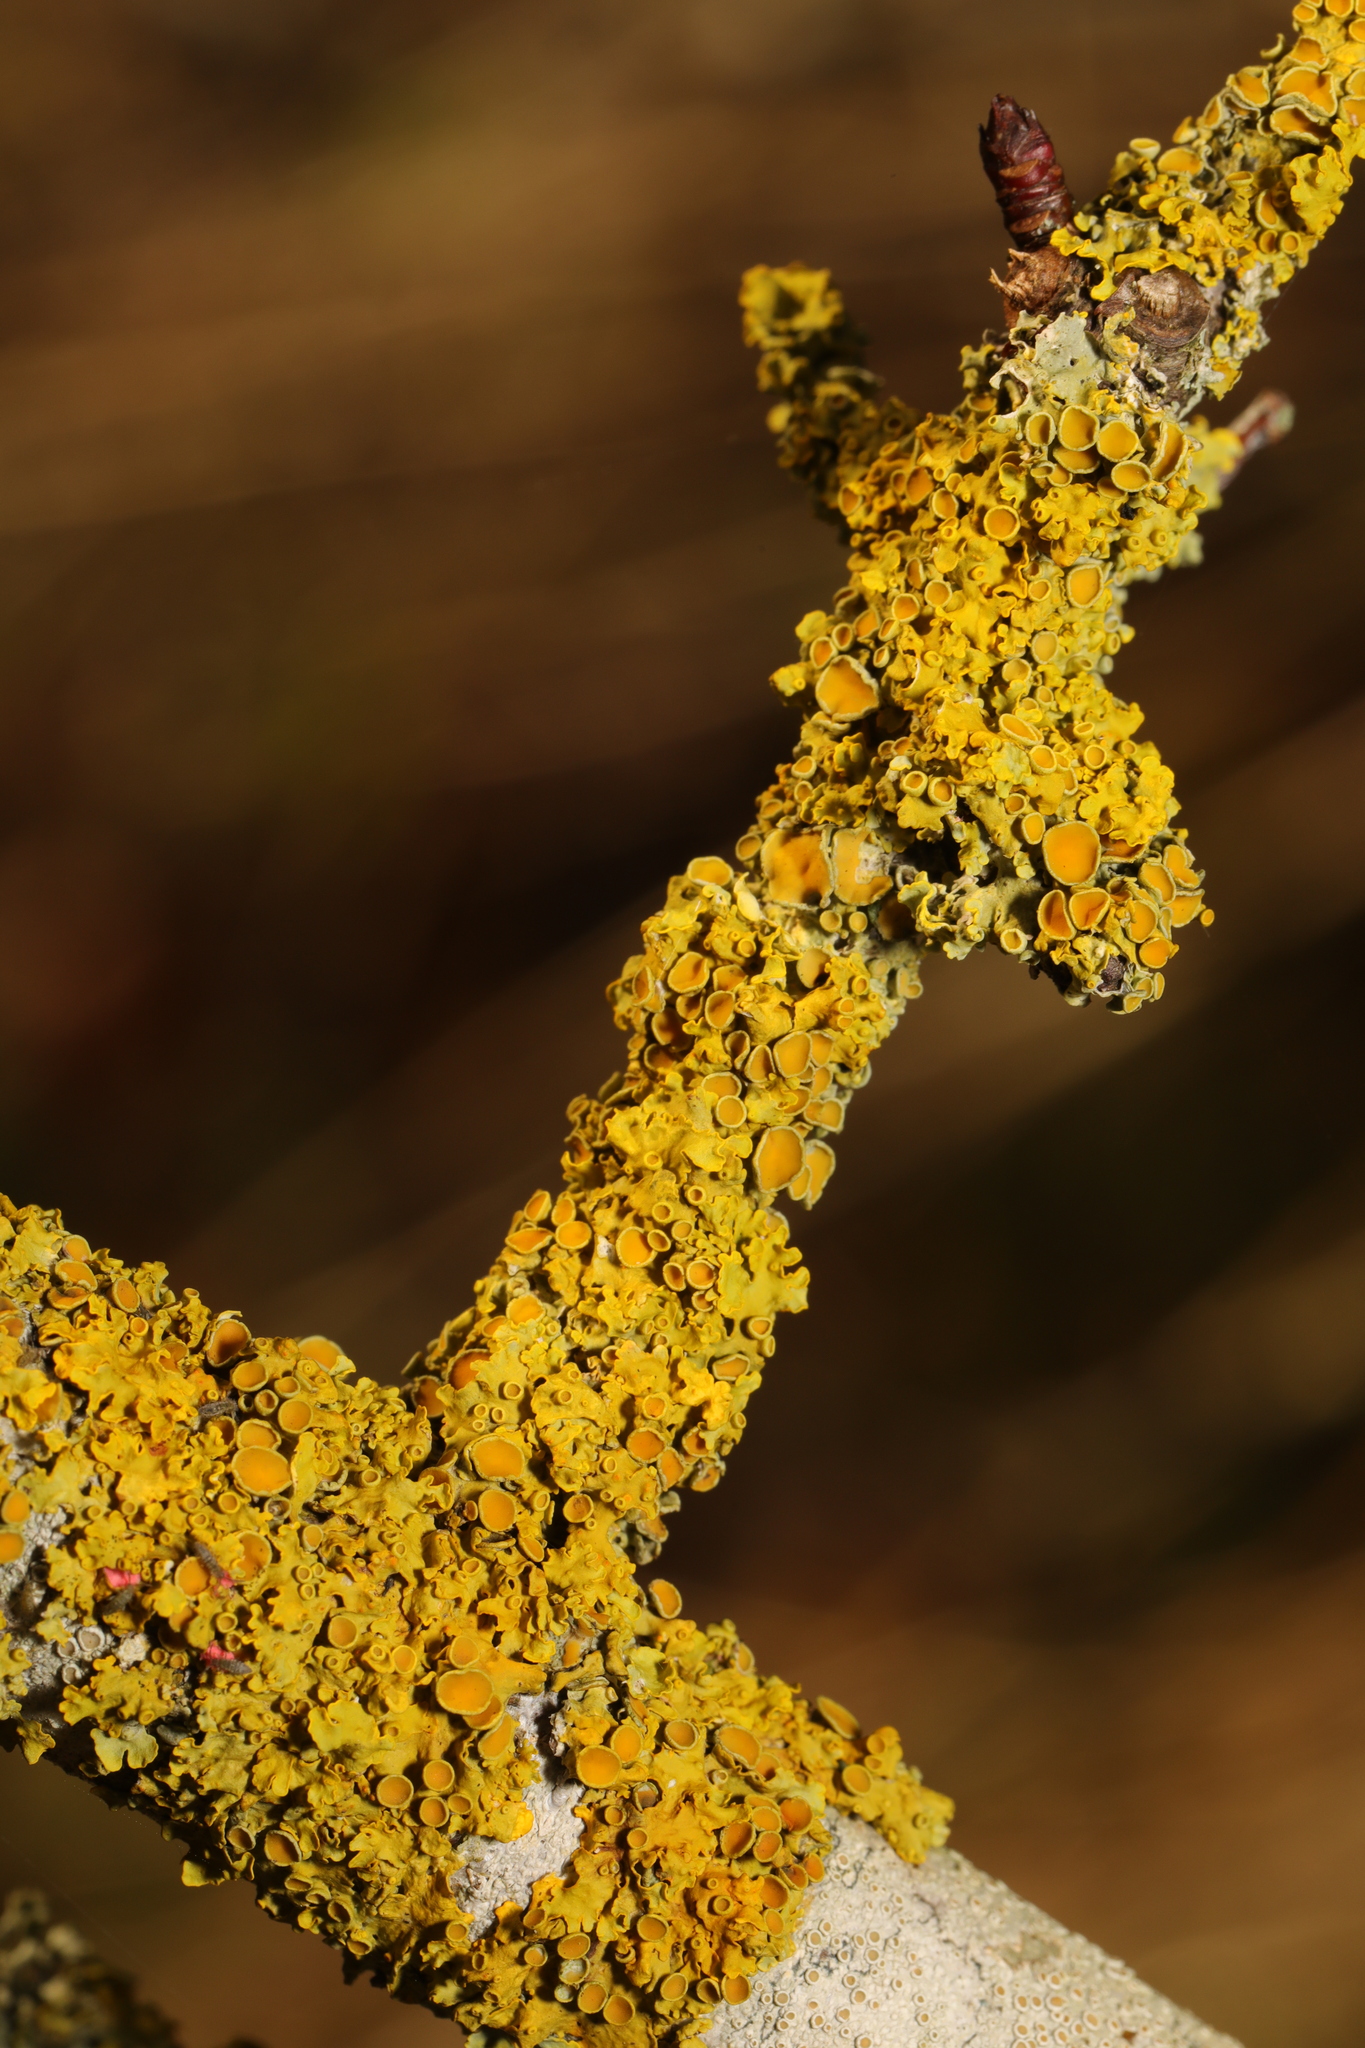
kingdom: Fungi
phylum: Ascomycota
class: Lecanoromycetes
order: Teloschistales
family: Teloschistaceae
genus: Xanthoria
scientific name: Xanthoria parietina
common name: Common orange lichen
